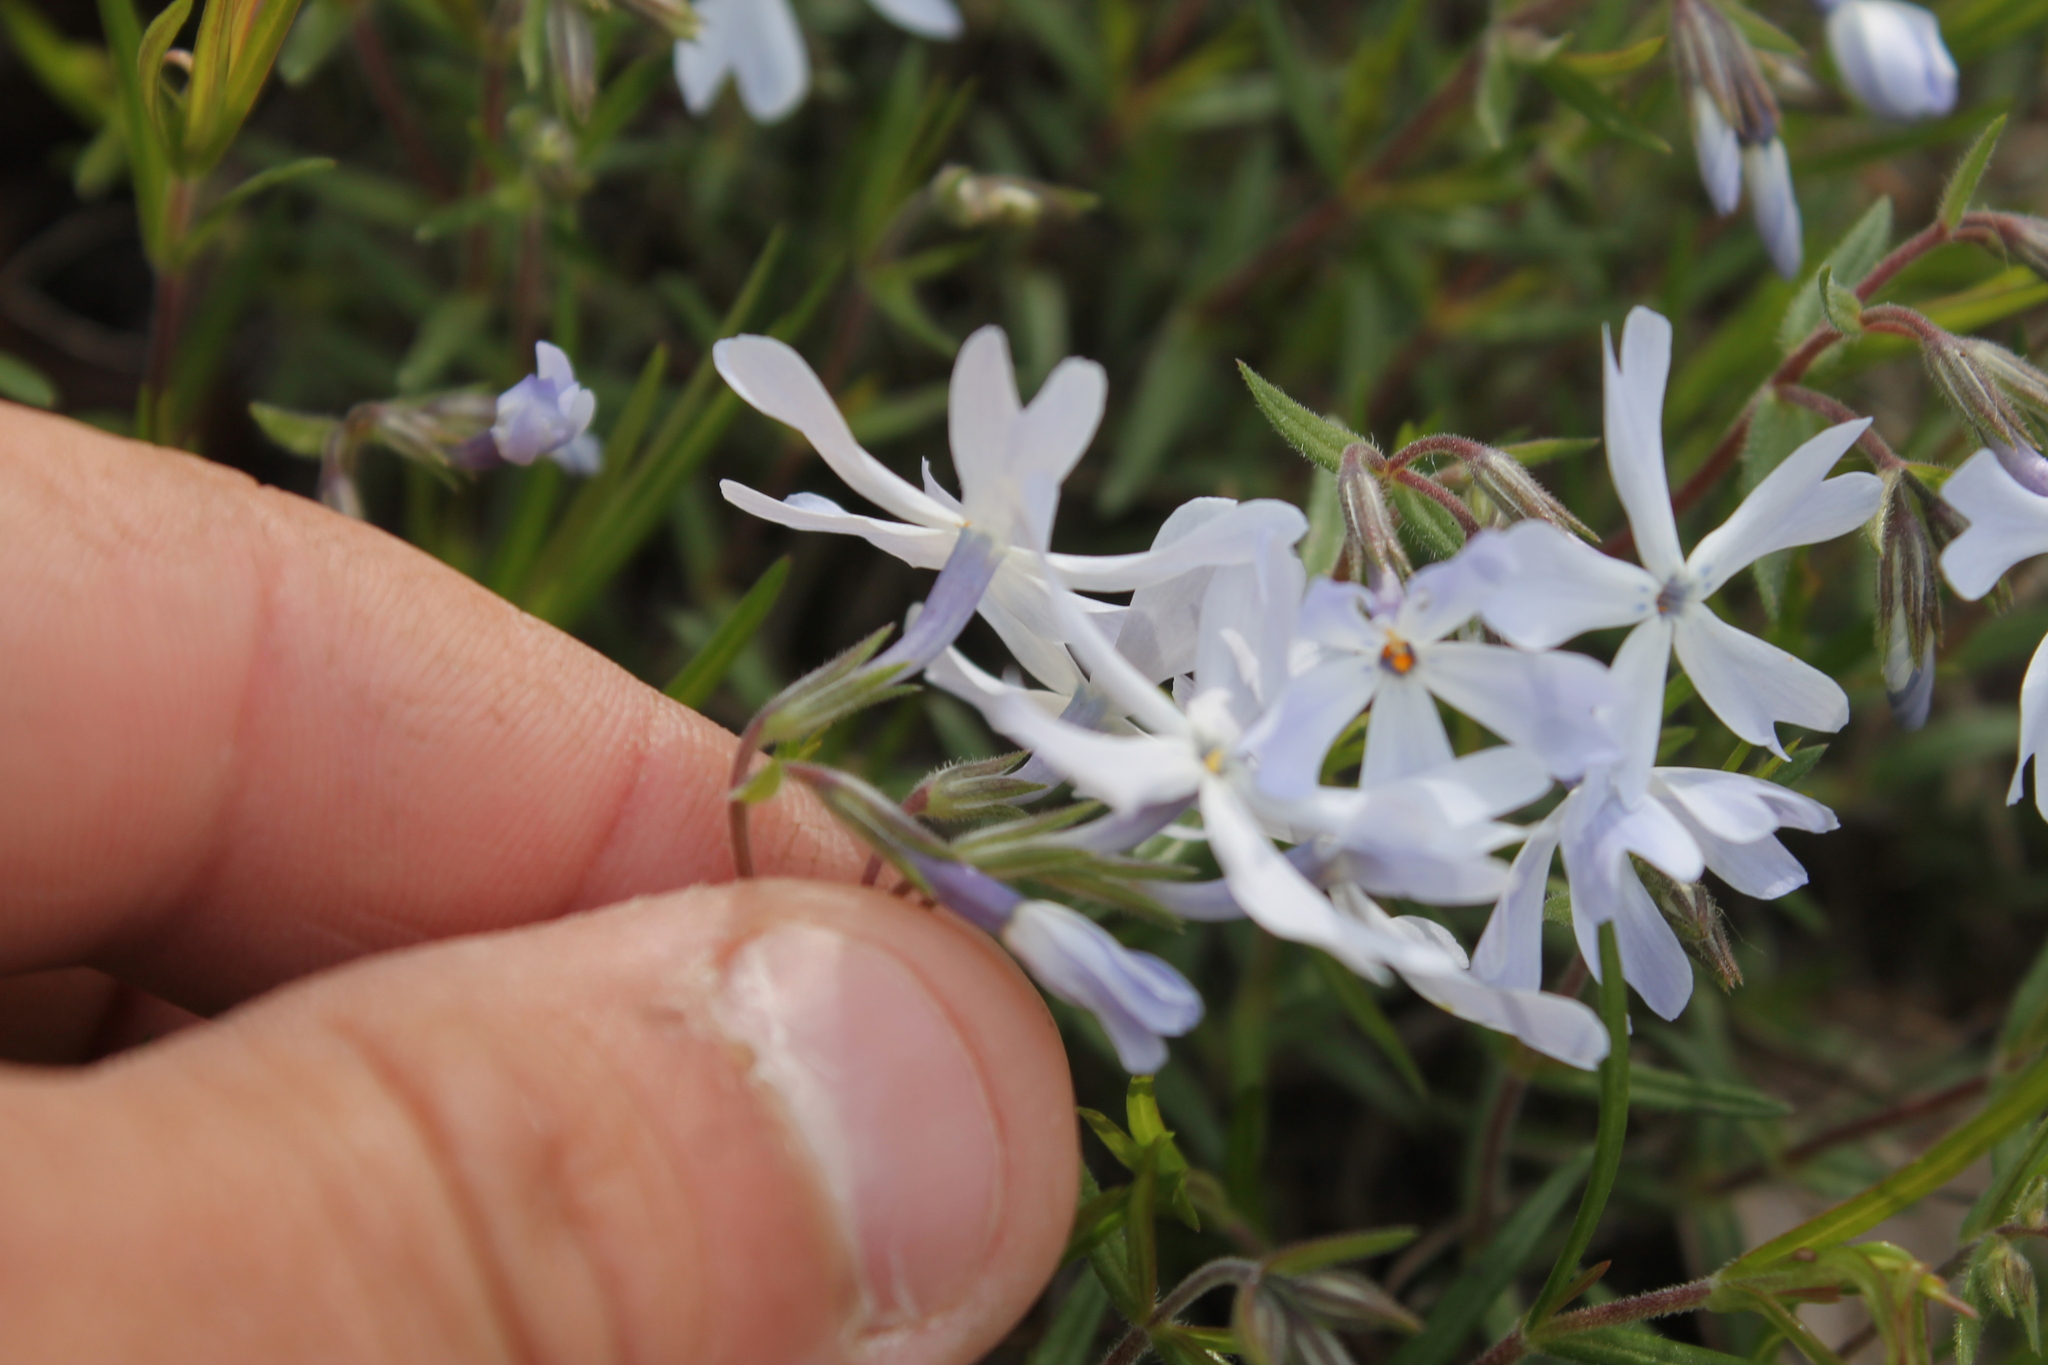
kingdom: Plantae
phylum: Tracheophyta
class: Magnoliopsida
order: Ericales
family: Polemoniaceae
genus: Phlox
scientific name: Phlox bifida
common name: Sand phlox
